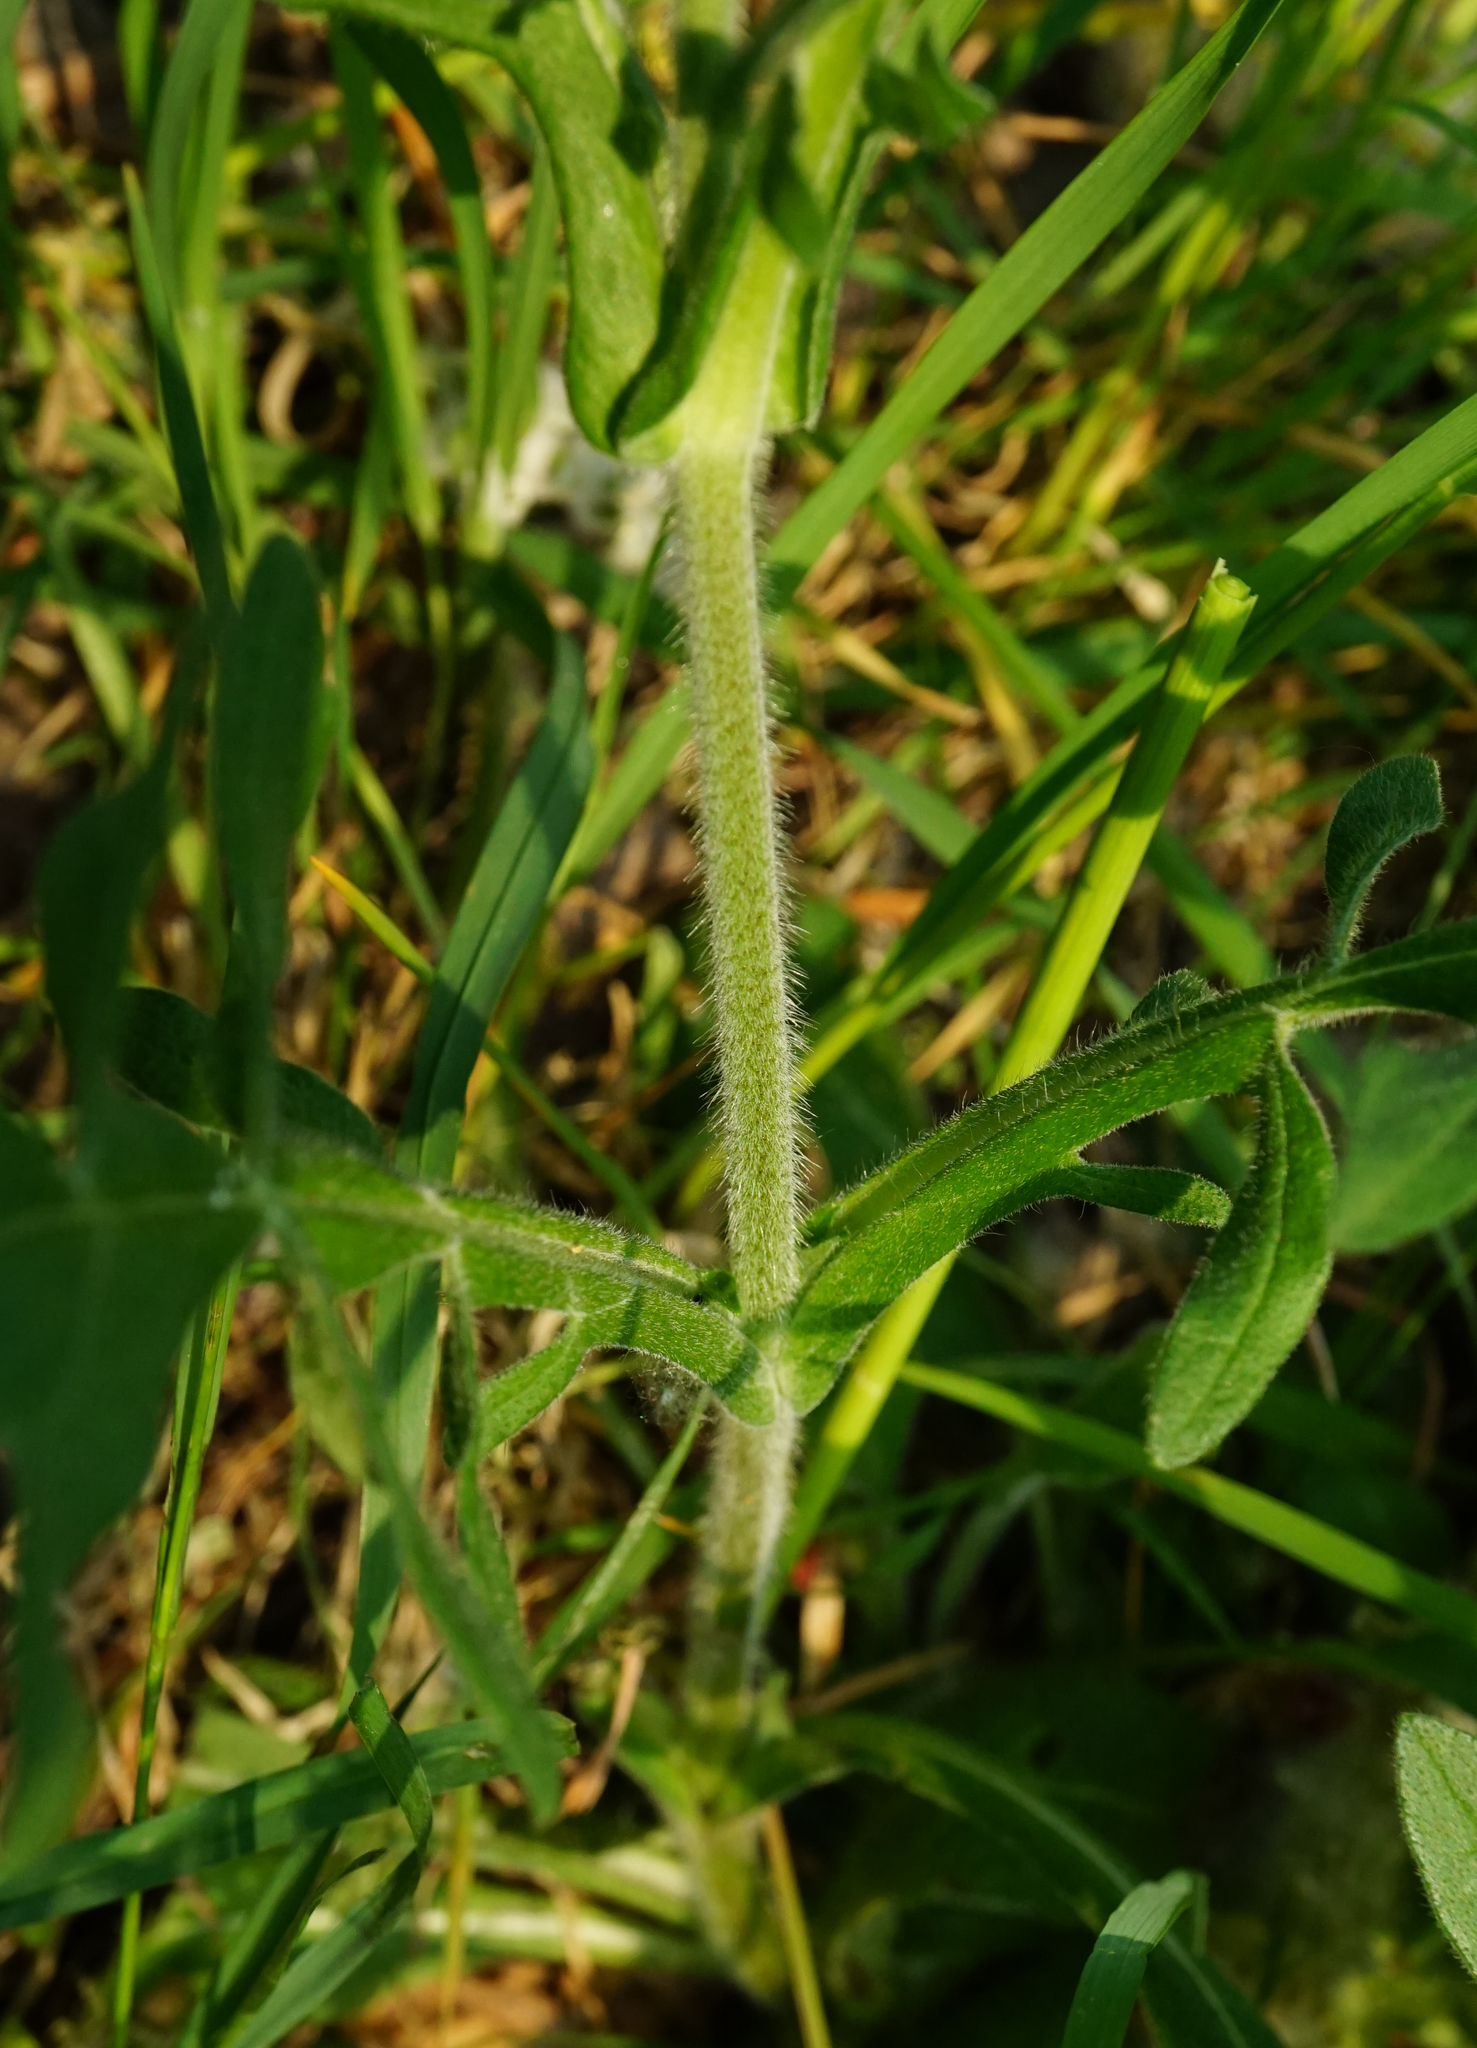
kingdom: Plantae
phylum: Tracheophyta
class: Magnoliopsida
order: Dipsacales
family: Caprifoliaceae
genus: Knautia
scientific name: Knautia arvensis
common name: Field scabiosa
